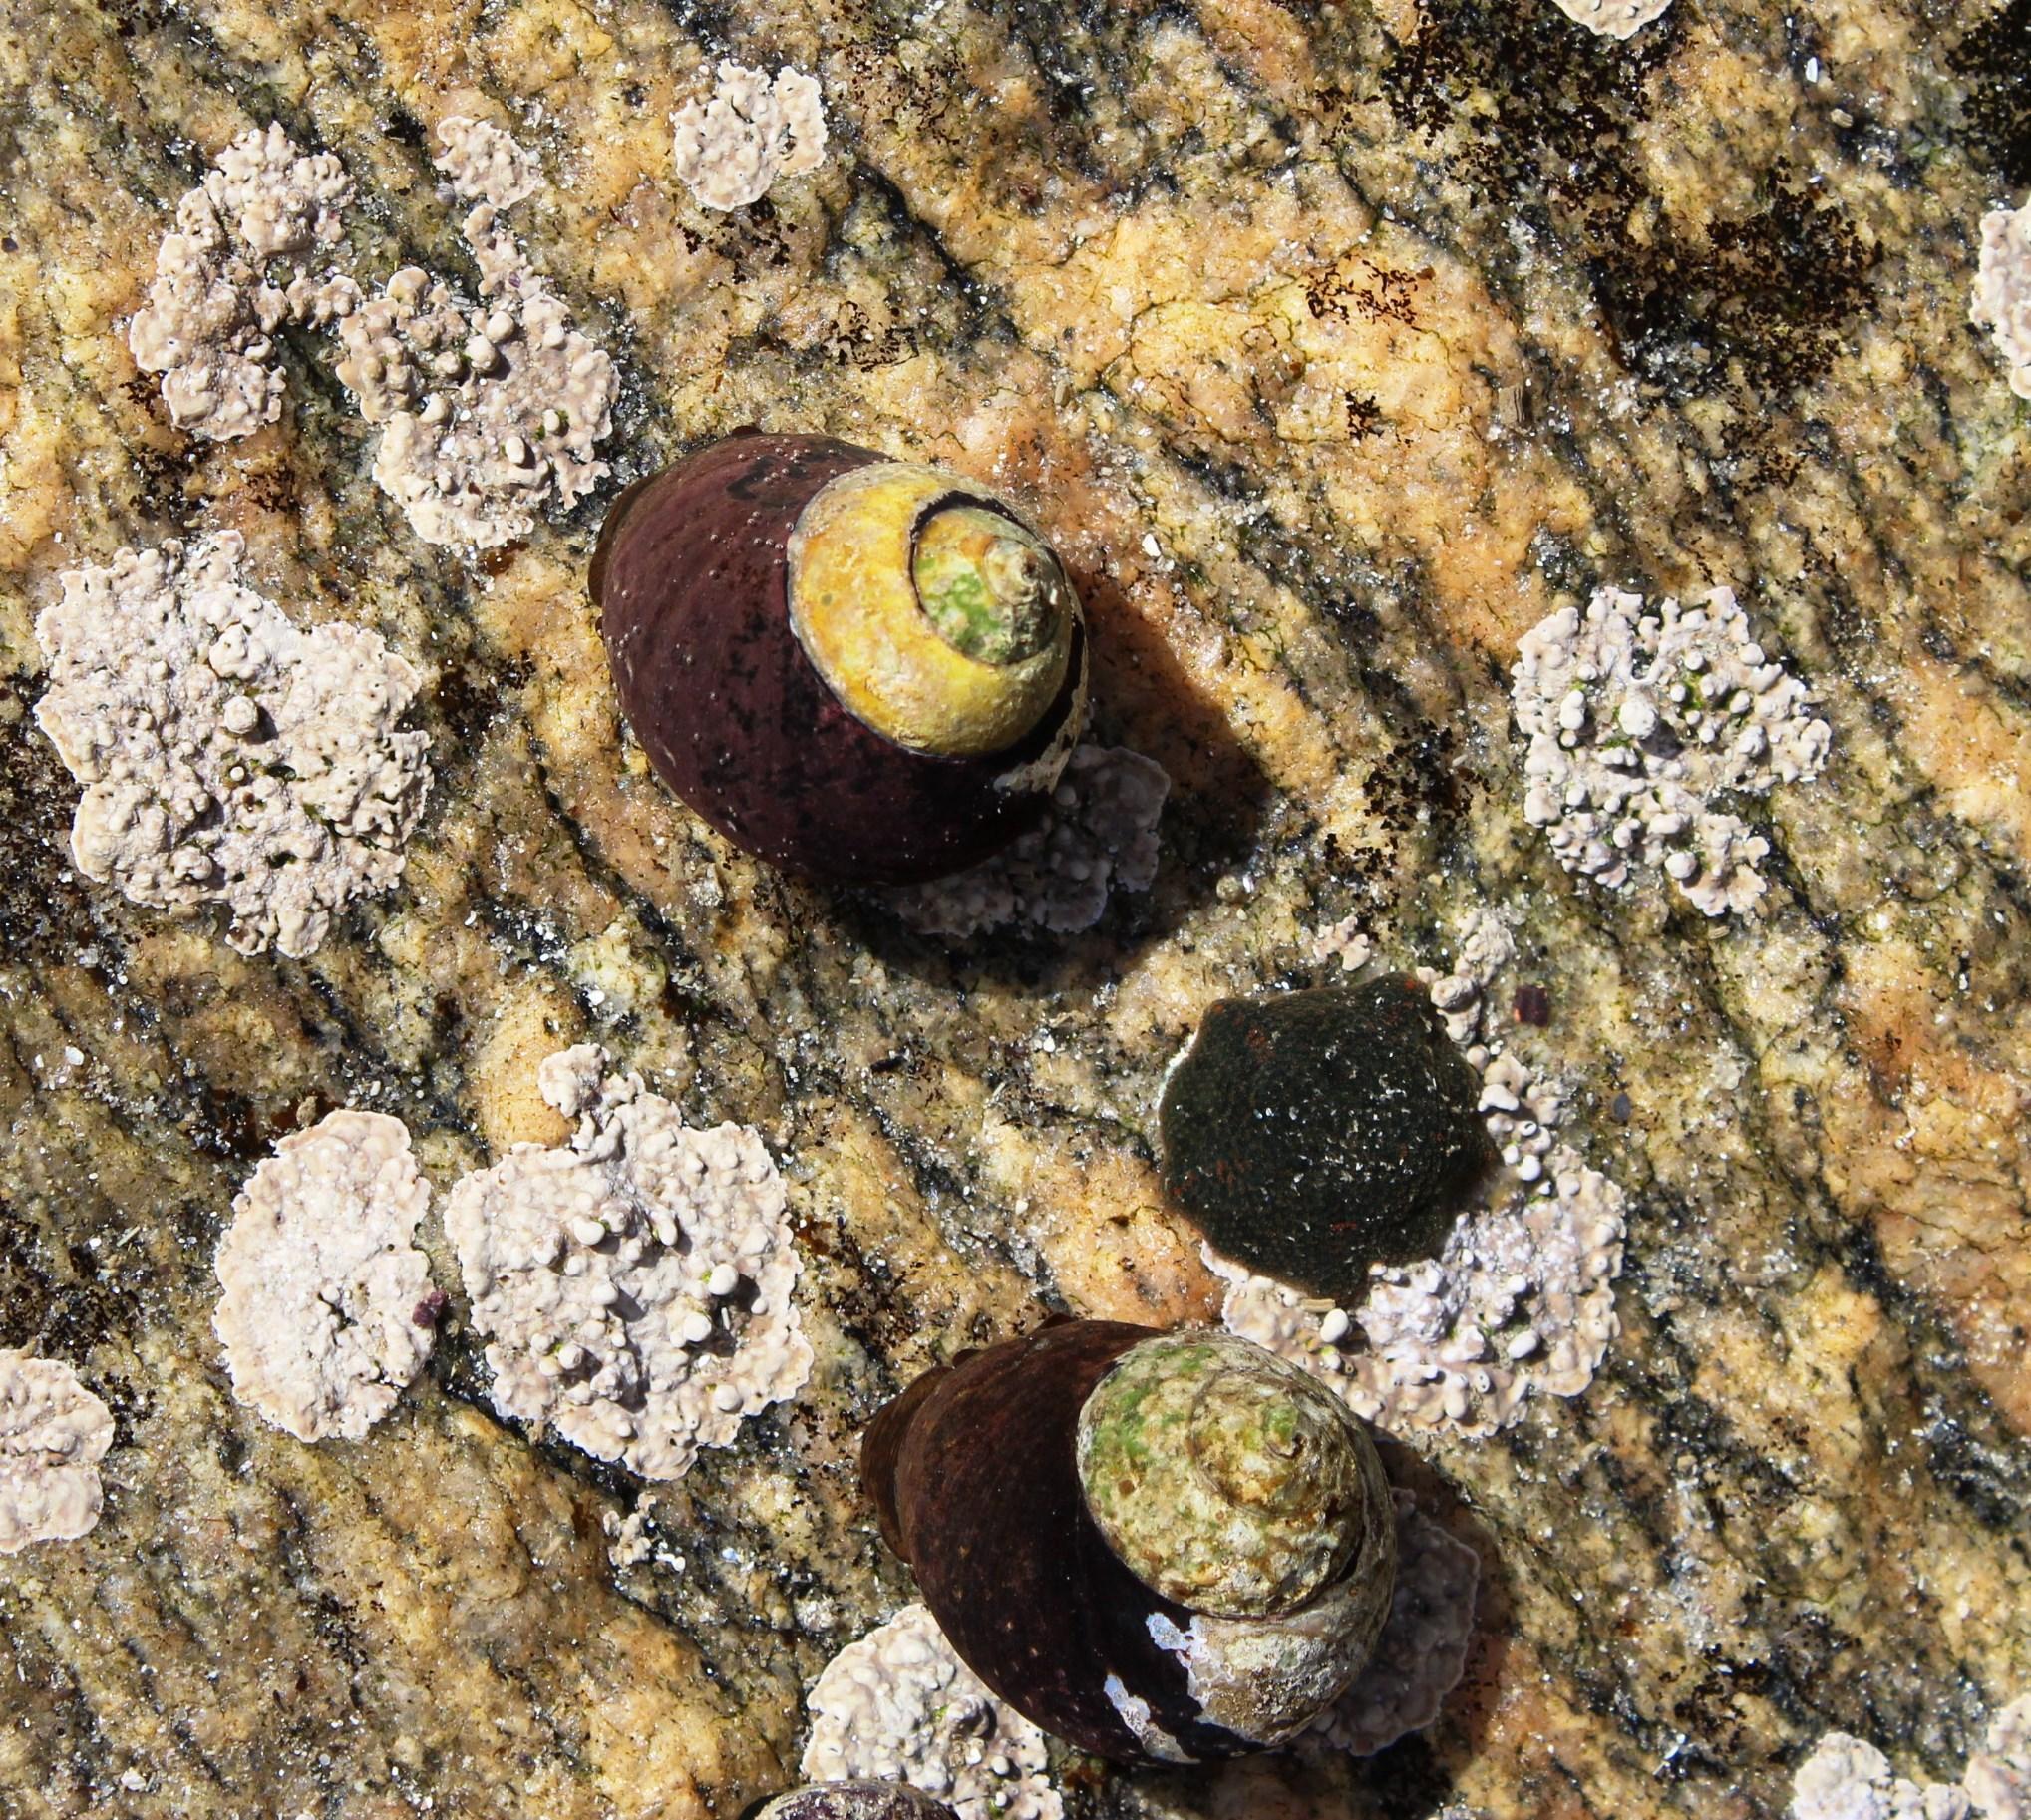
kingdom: Animalia
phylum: Mollusca
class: Gastropoda
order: Trochida
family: Trochidae
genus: Oxystele
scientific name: Oxystele tigrina
